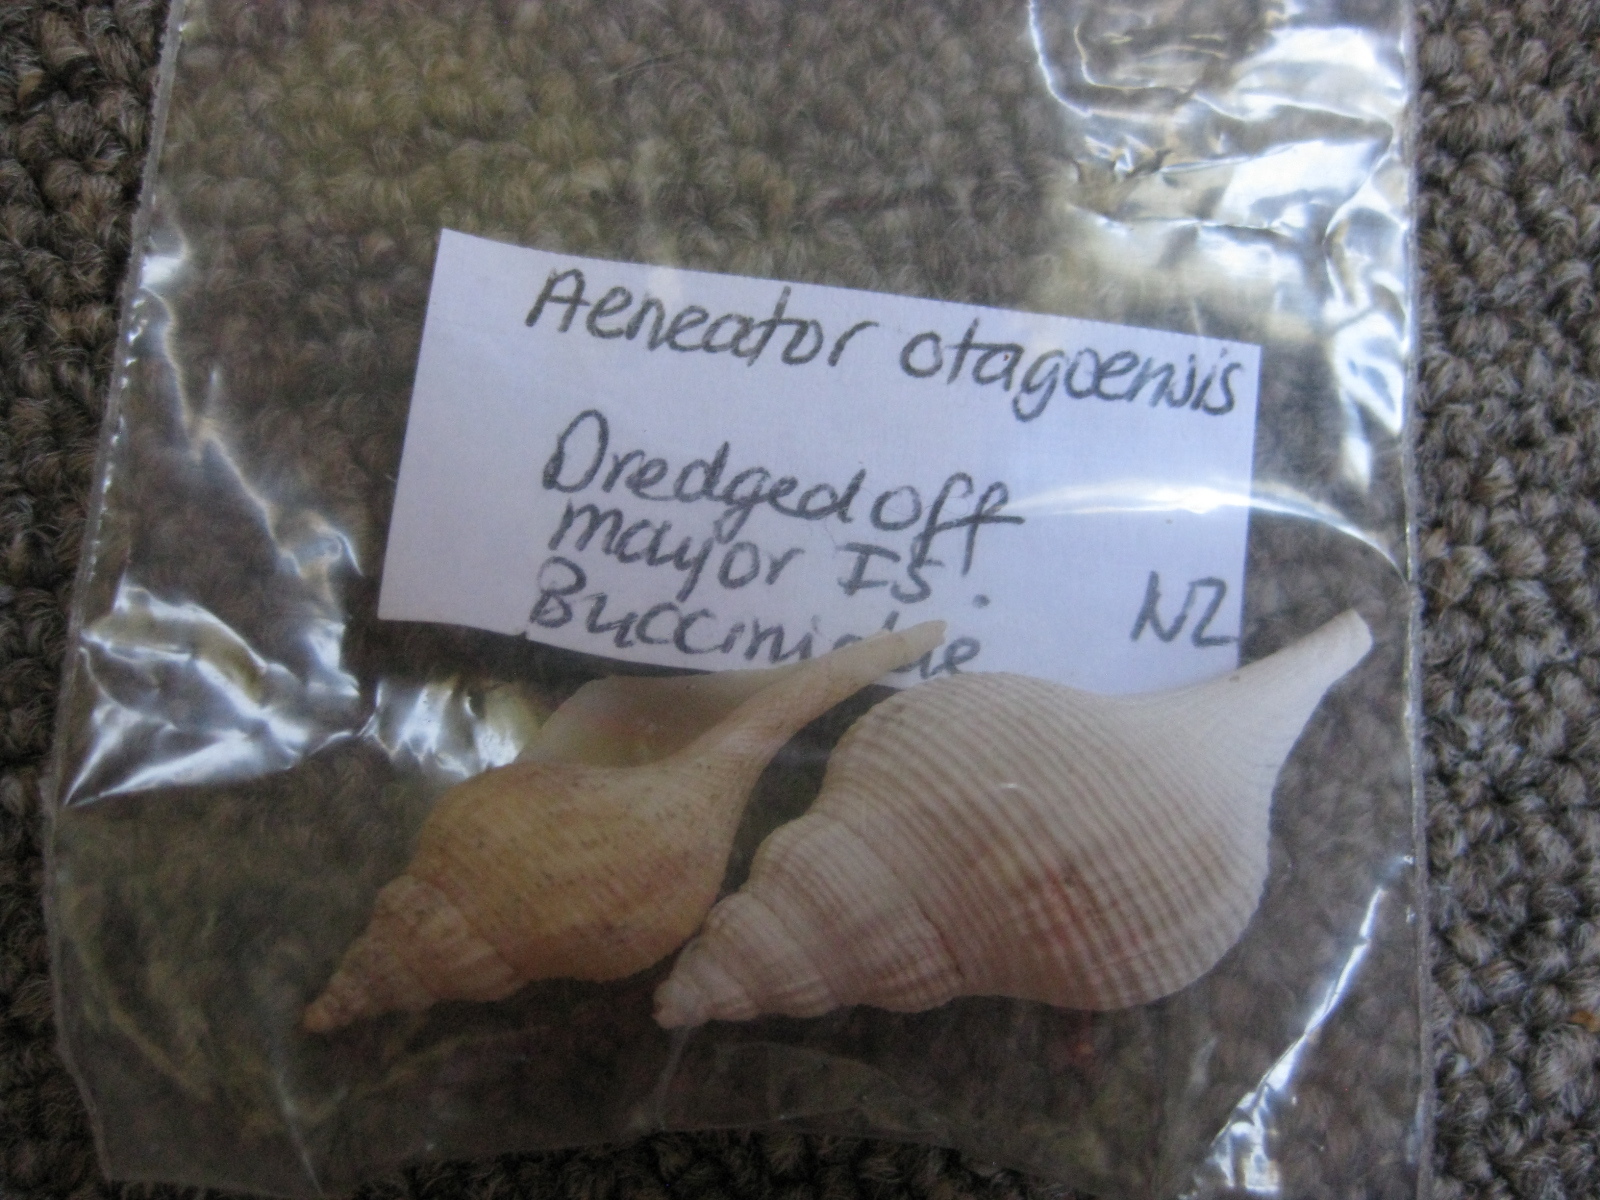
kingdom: Animalia
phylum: Mollusca
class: Gastropoda
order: Neogastropoda
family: Tudiclidae
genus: Aeneator
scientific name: Aeneator otagoensis
